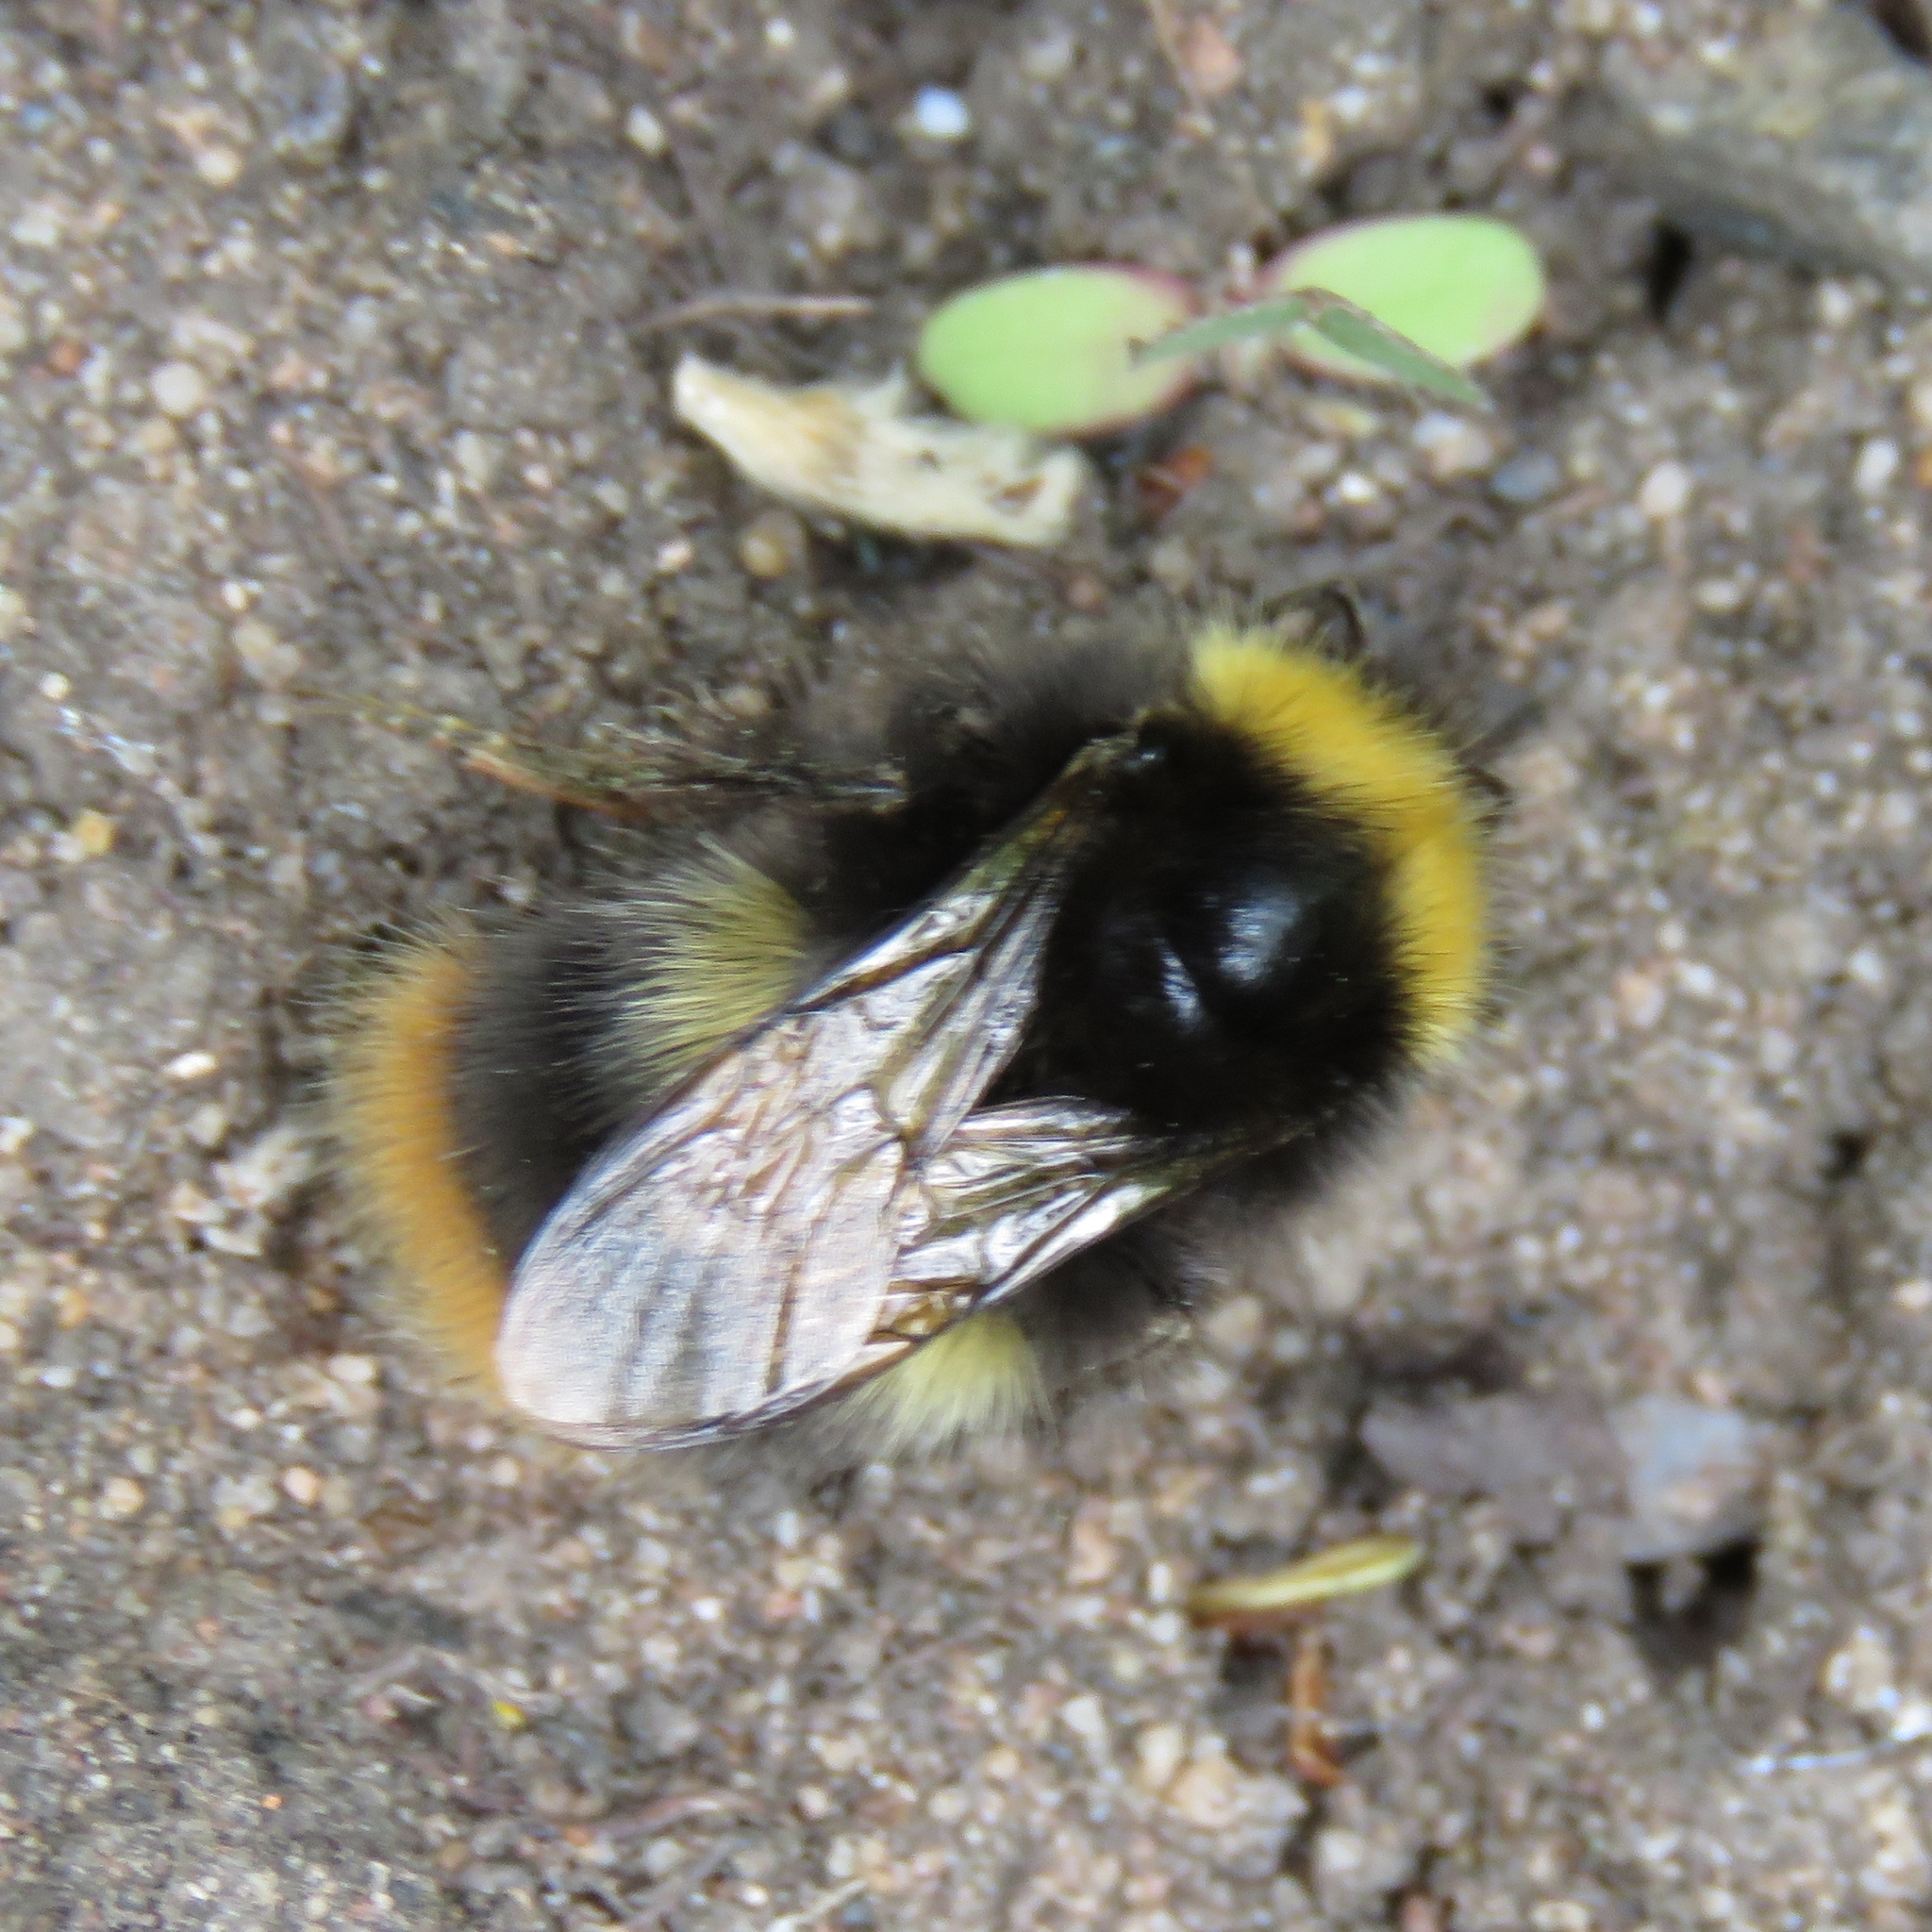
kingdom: Animalia
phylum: Arthropoda
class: Insecta
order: Hymenoptera
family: Apidae
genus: Bombus
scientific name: Bombus pratorum
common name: Early humble-bee
